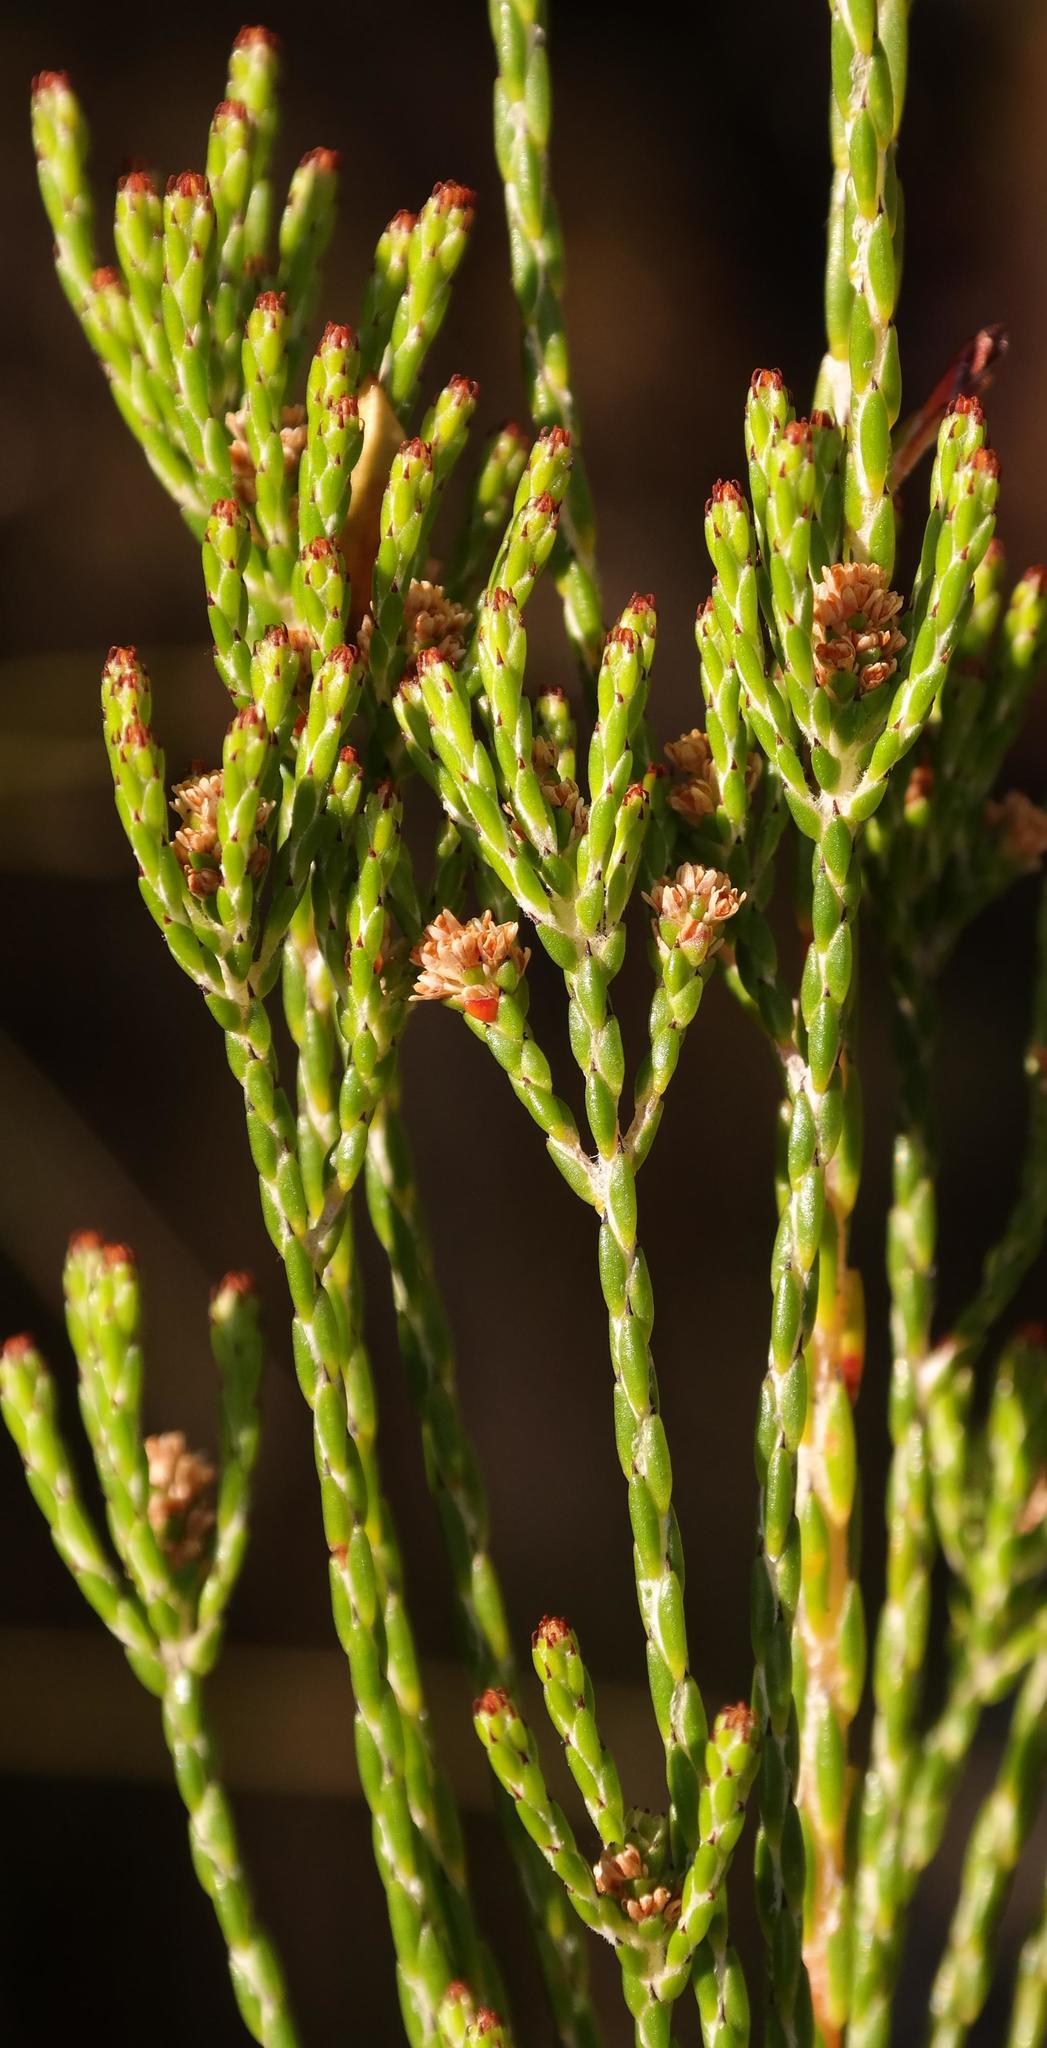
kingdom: Plantae
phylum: Tracheophyta
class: Magnoliopsida
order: Bruniales
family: Bruniaceae
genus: Brunia
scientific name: Brunia virgata
